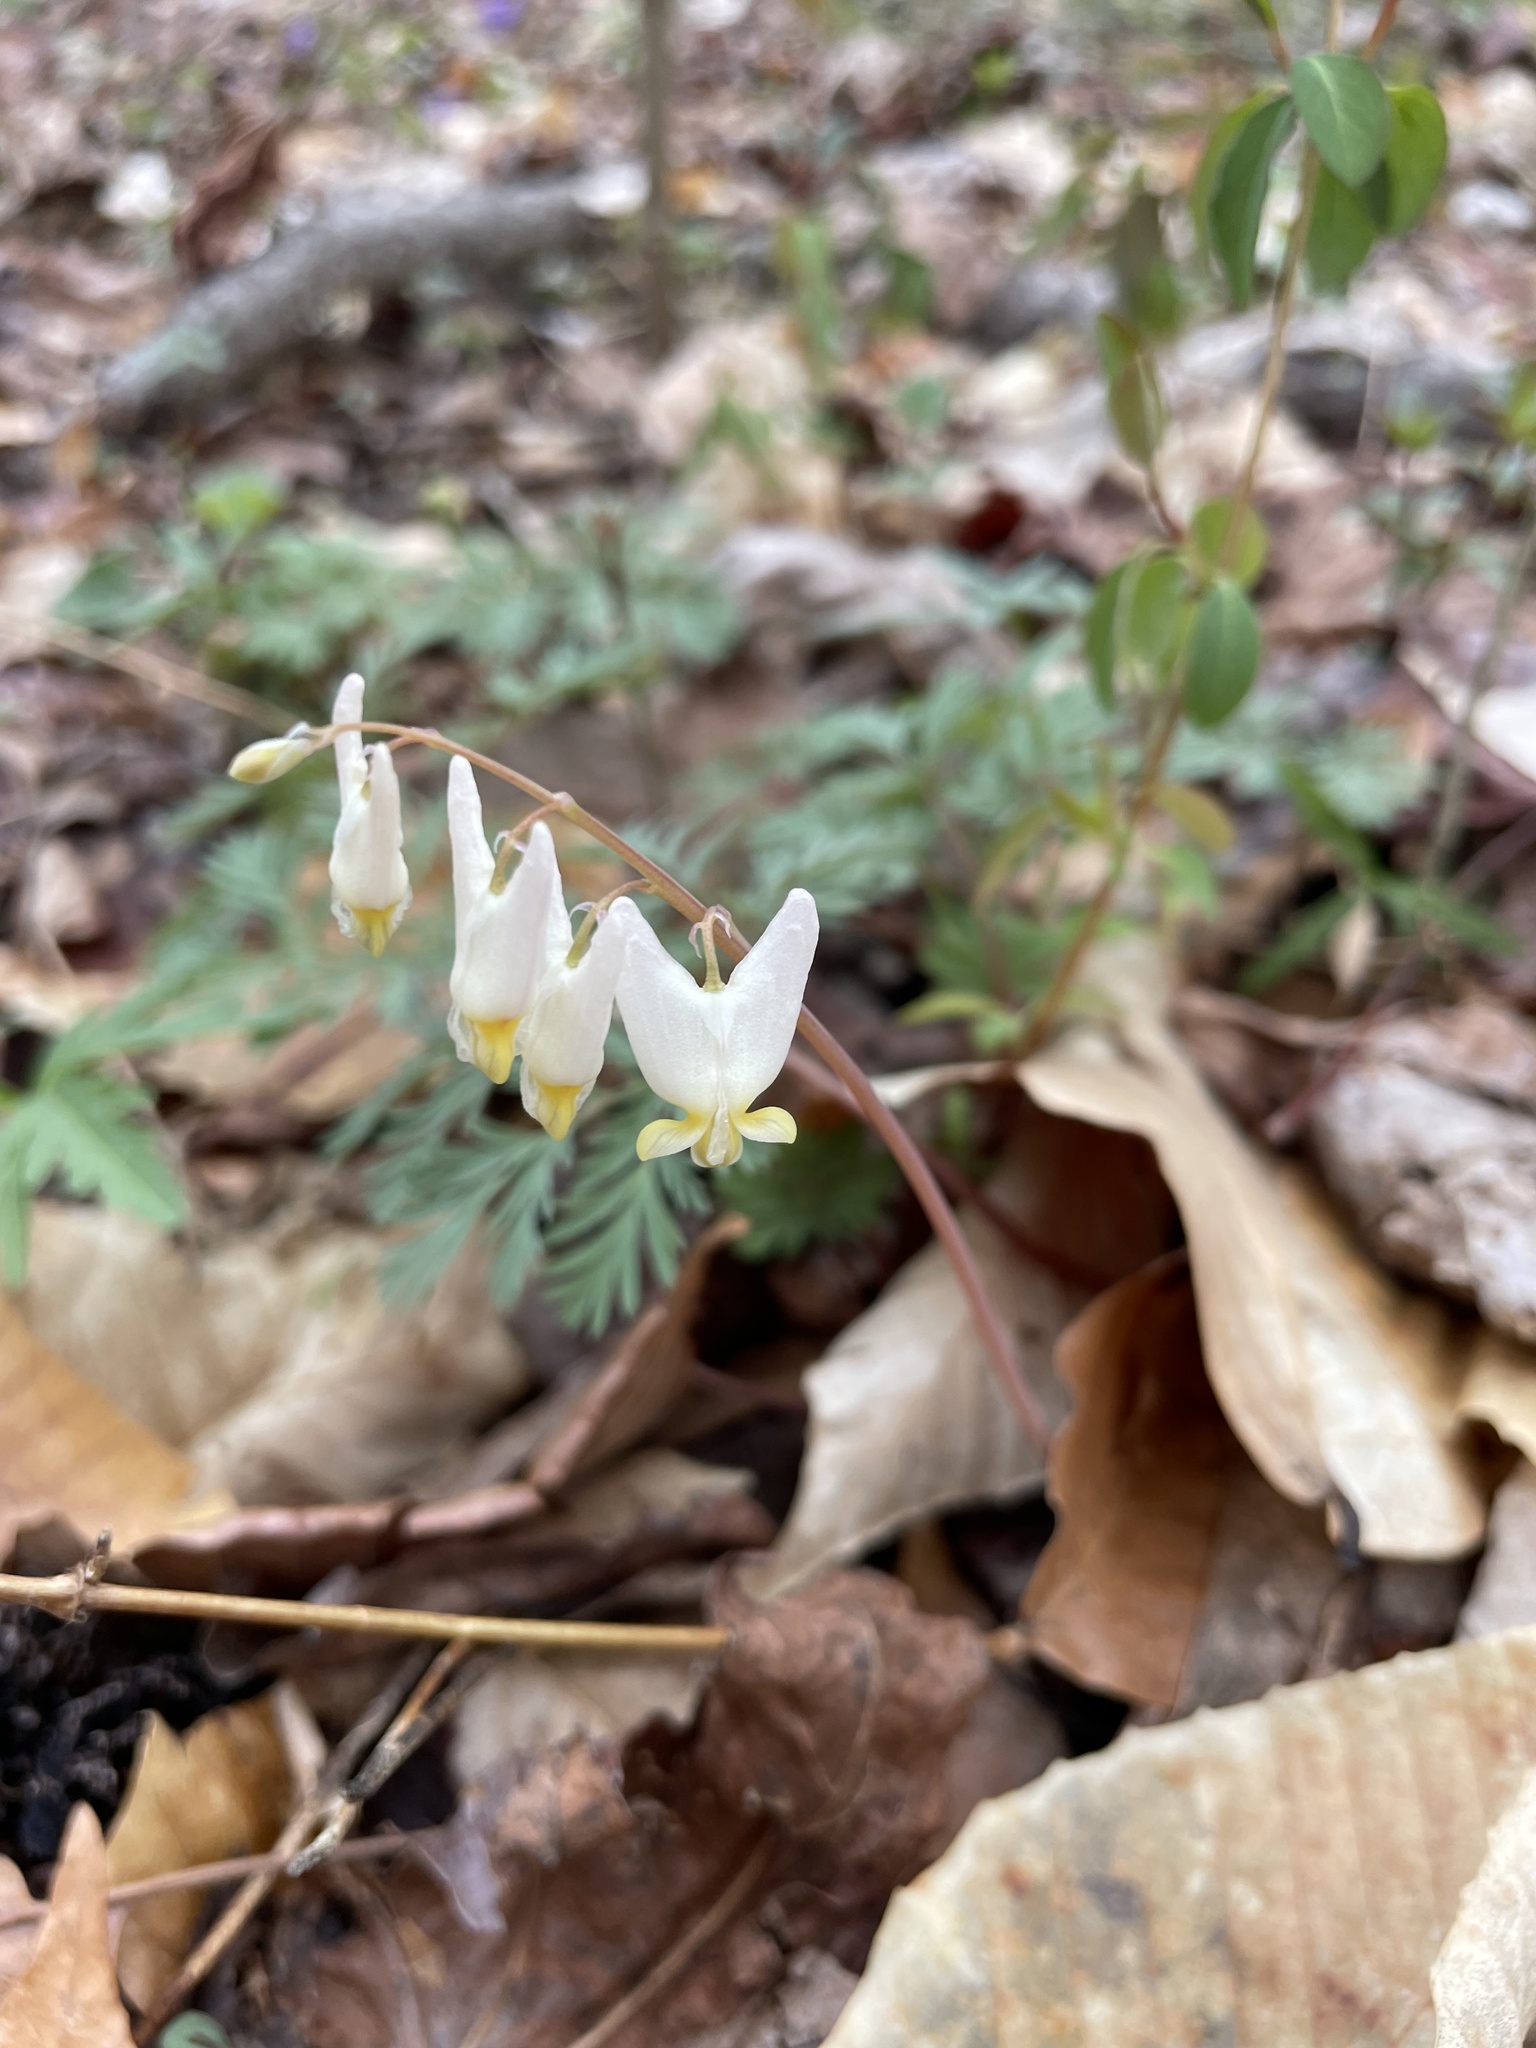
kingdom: Plantae
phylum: Tracheophyta
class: Magnoliopsida
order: Ranunculales
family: Papaveraceae
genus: Dicentra
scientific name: Dicentra cucullaria
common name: Dutchman's breeches
